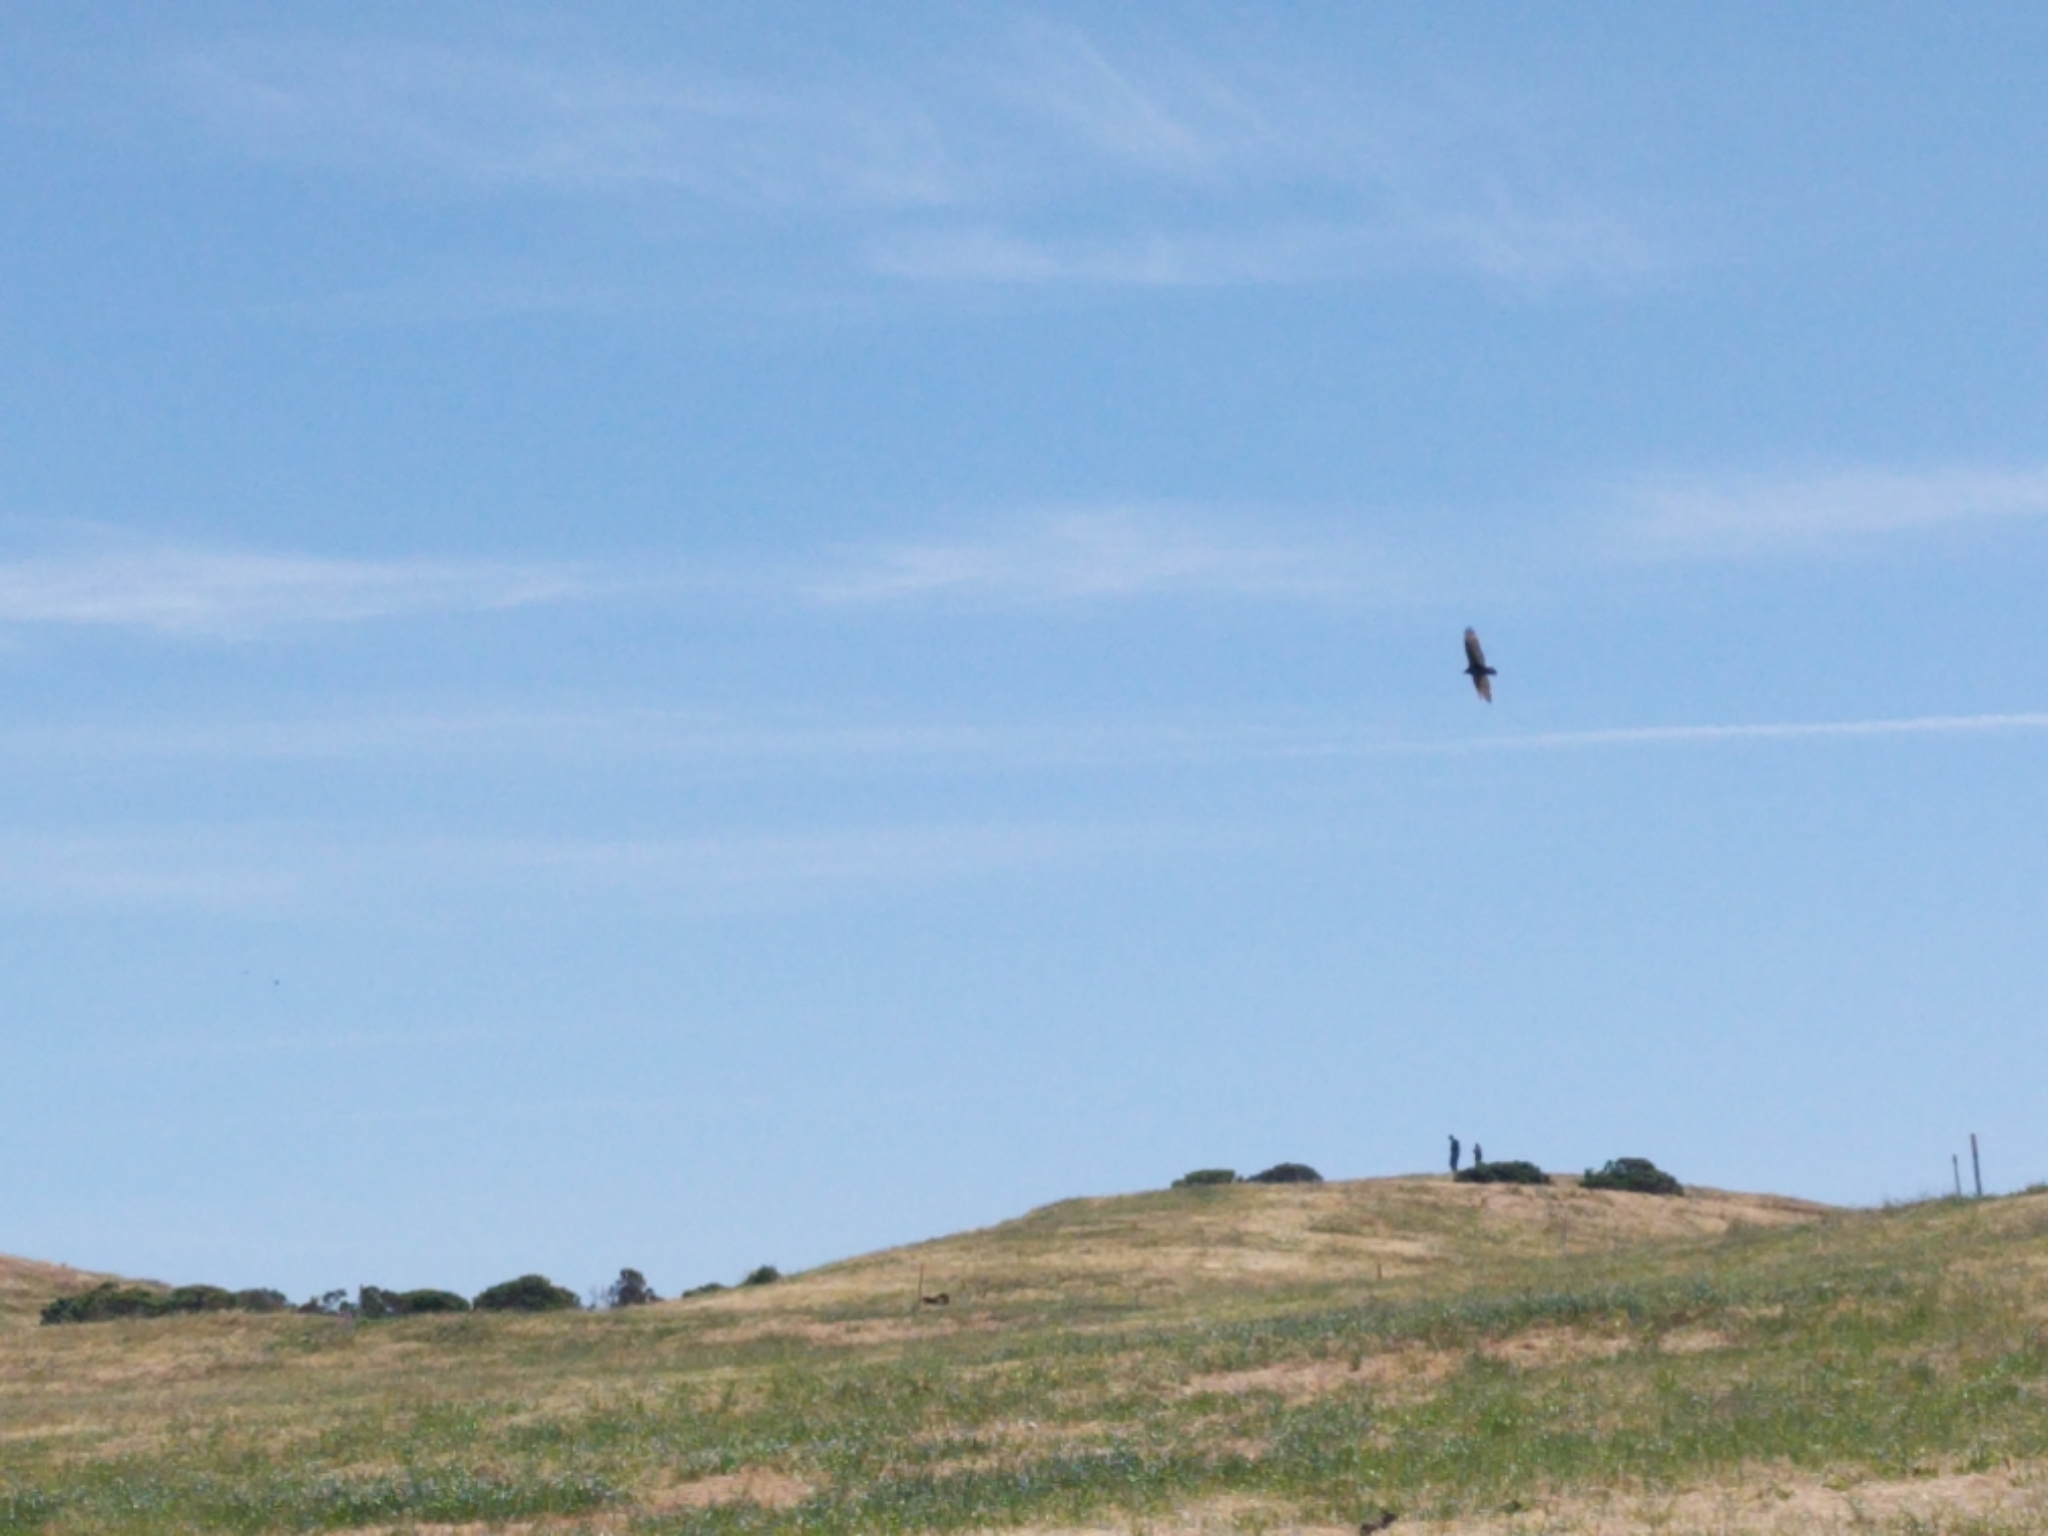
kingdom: Animalia
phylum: Chordata
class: Aves
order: Accipitriformes
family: Cathartidae
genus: Cathartes
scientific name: Cathartes aura
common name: Turkey vulture
